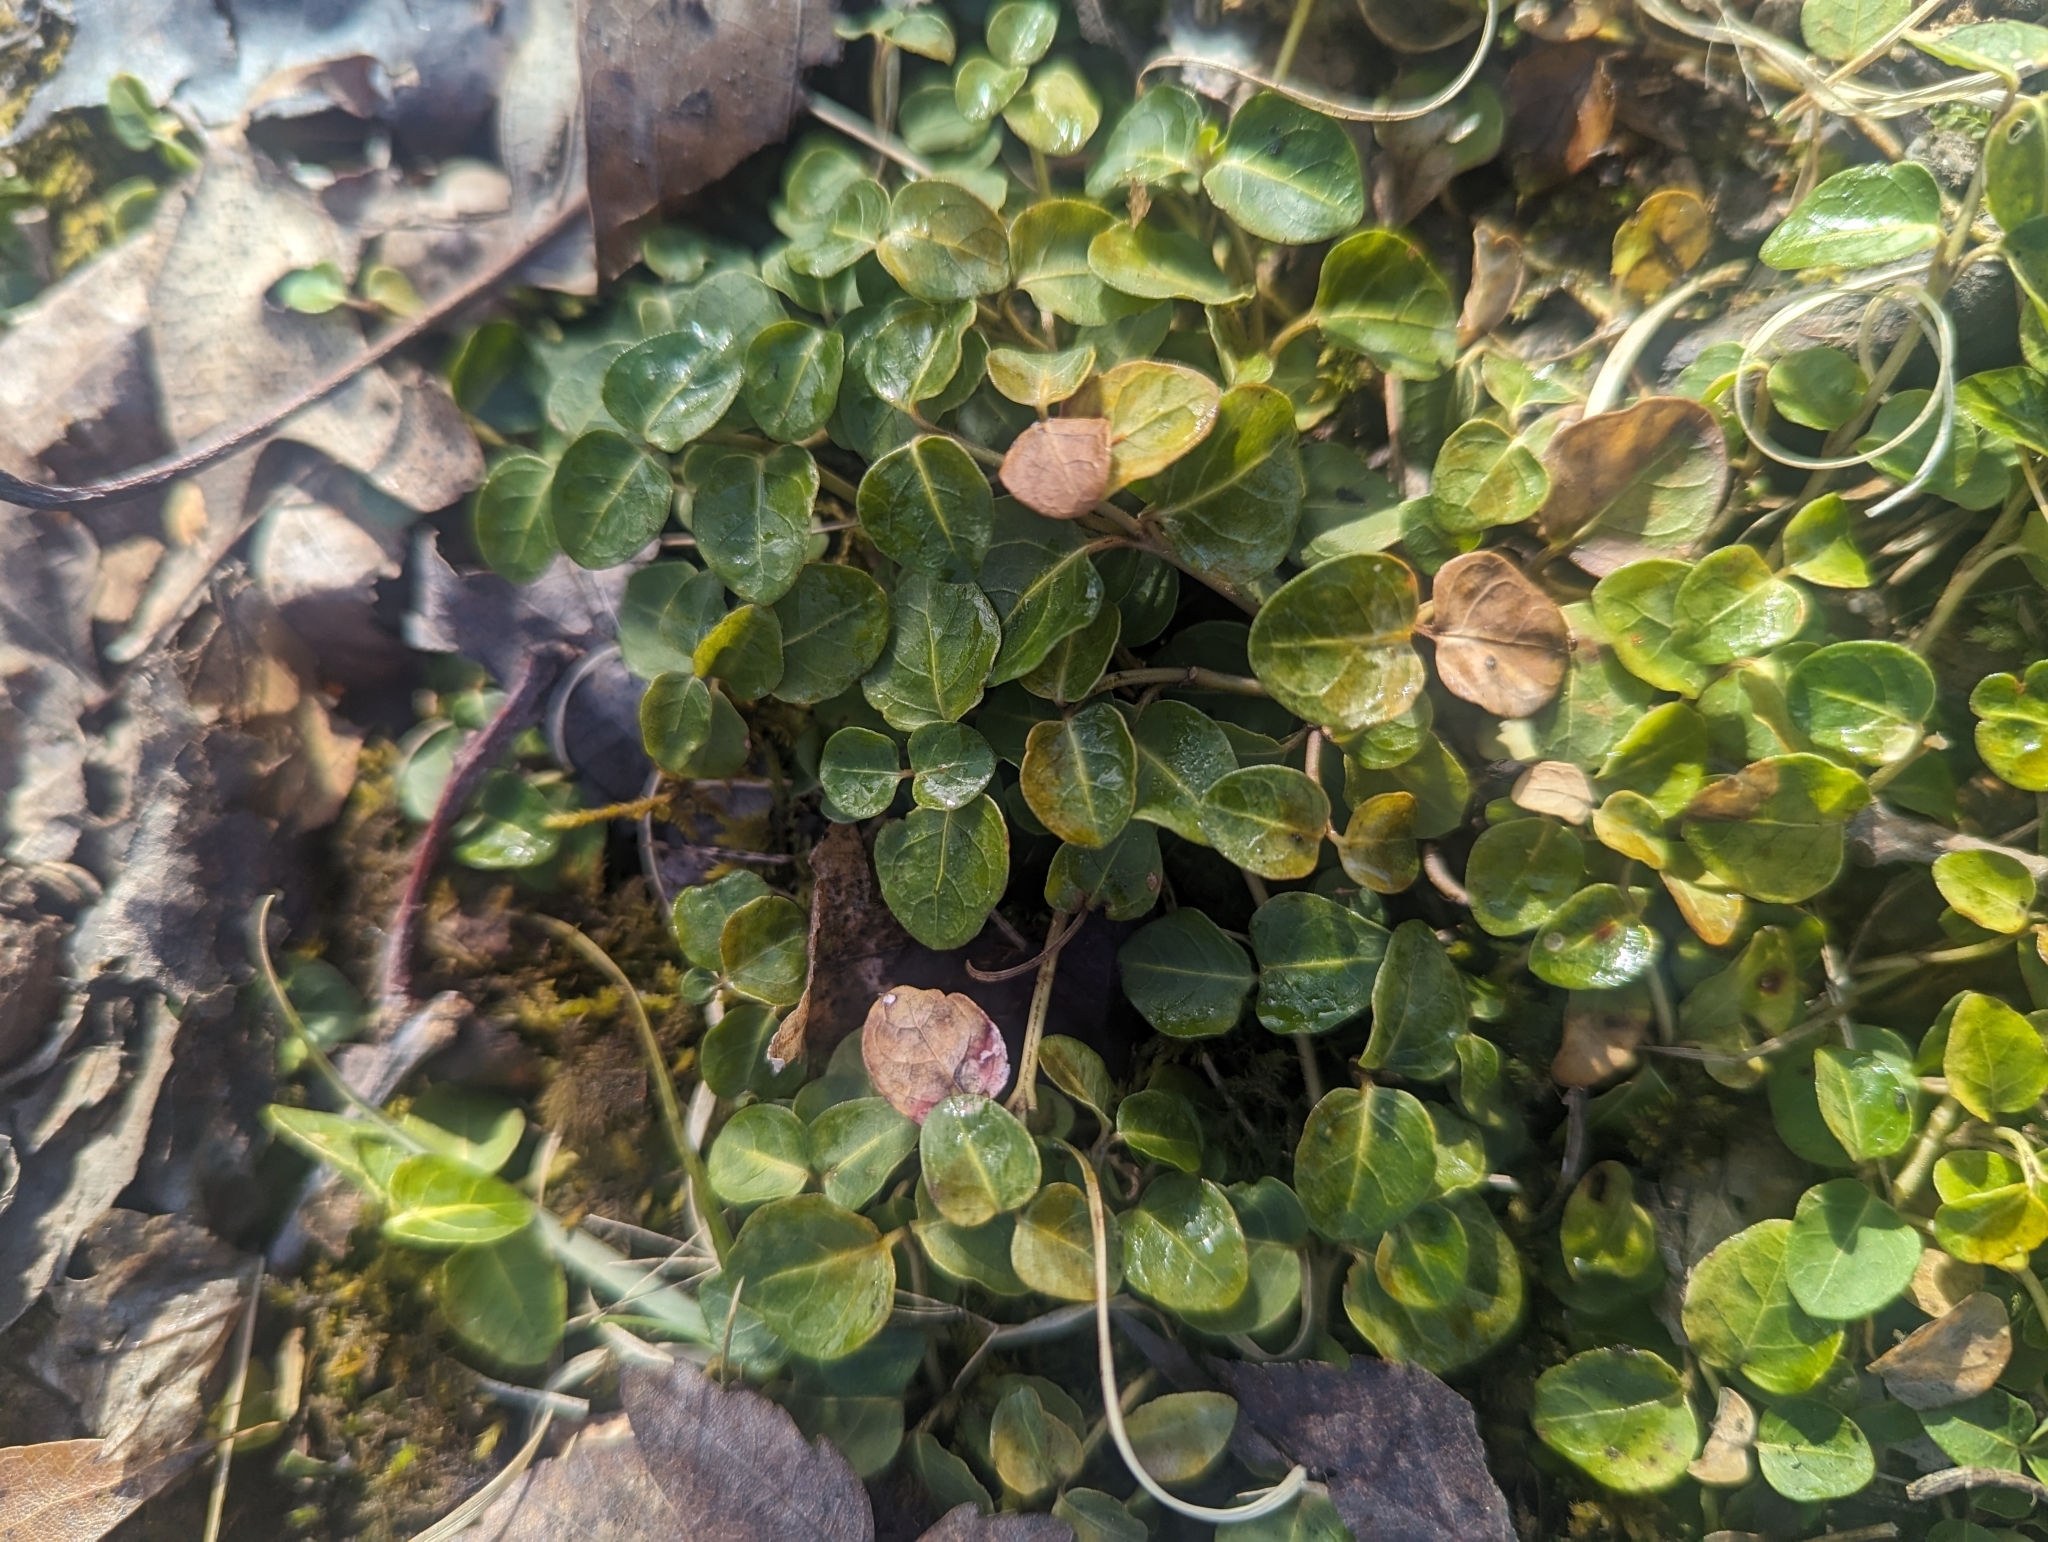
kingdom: Plantae
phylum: Tracheophyta
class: Magnoliopsida
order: Gentianales
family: Rubiaceae
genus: Mitchella
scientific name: Mitchella repens
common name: Partridge-berry
